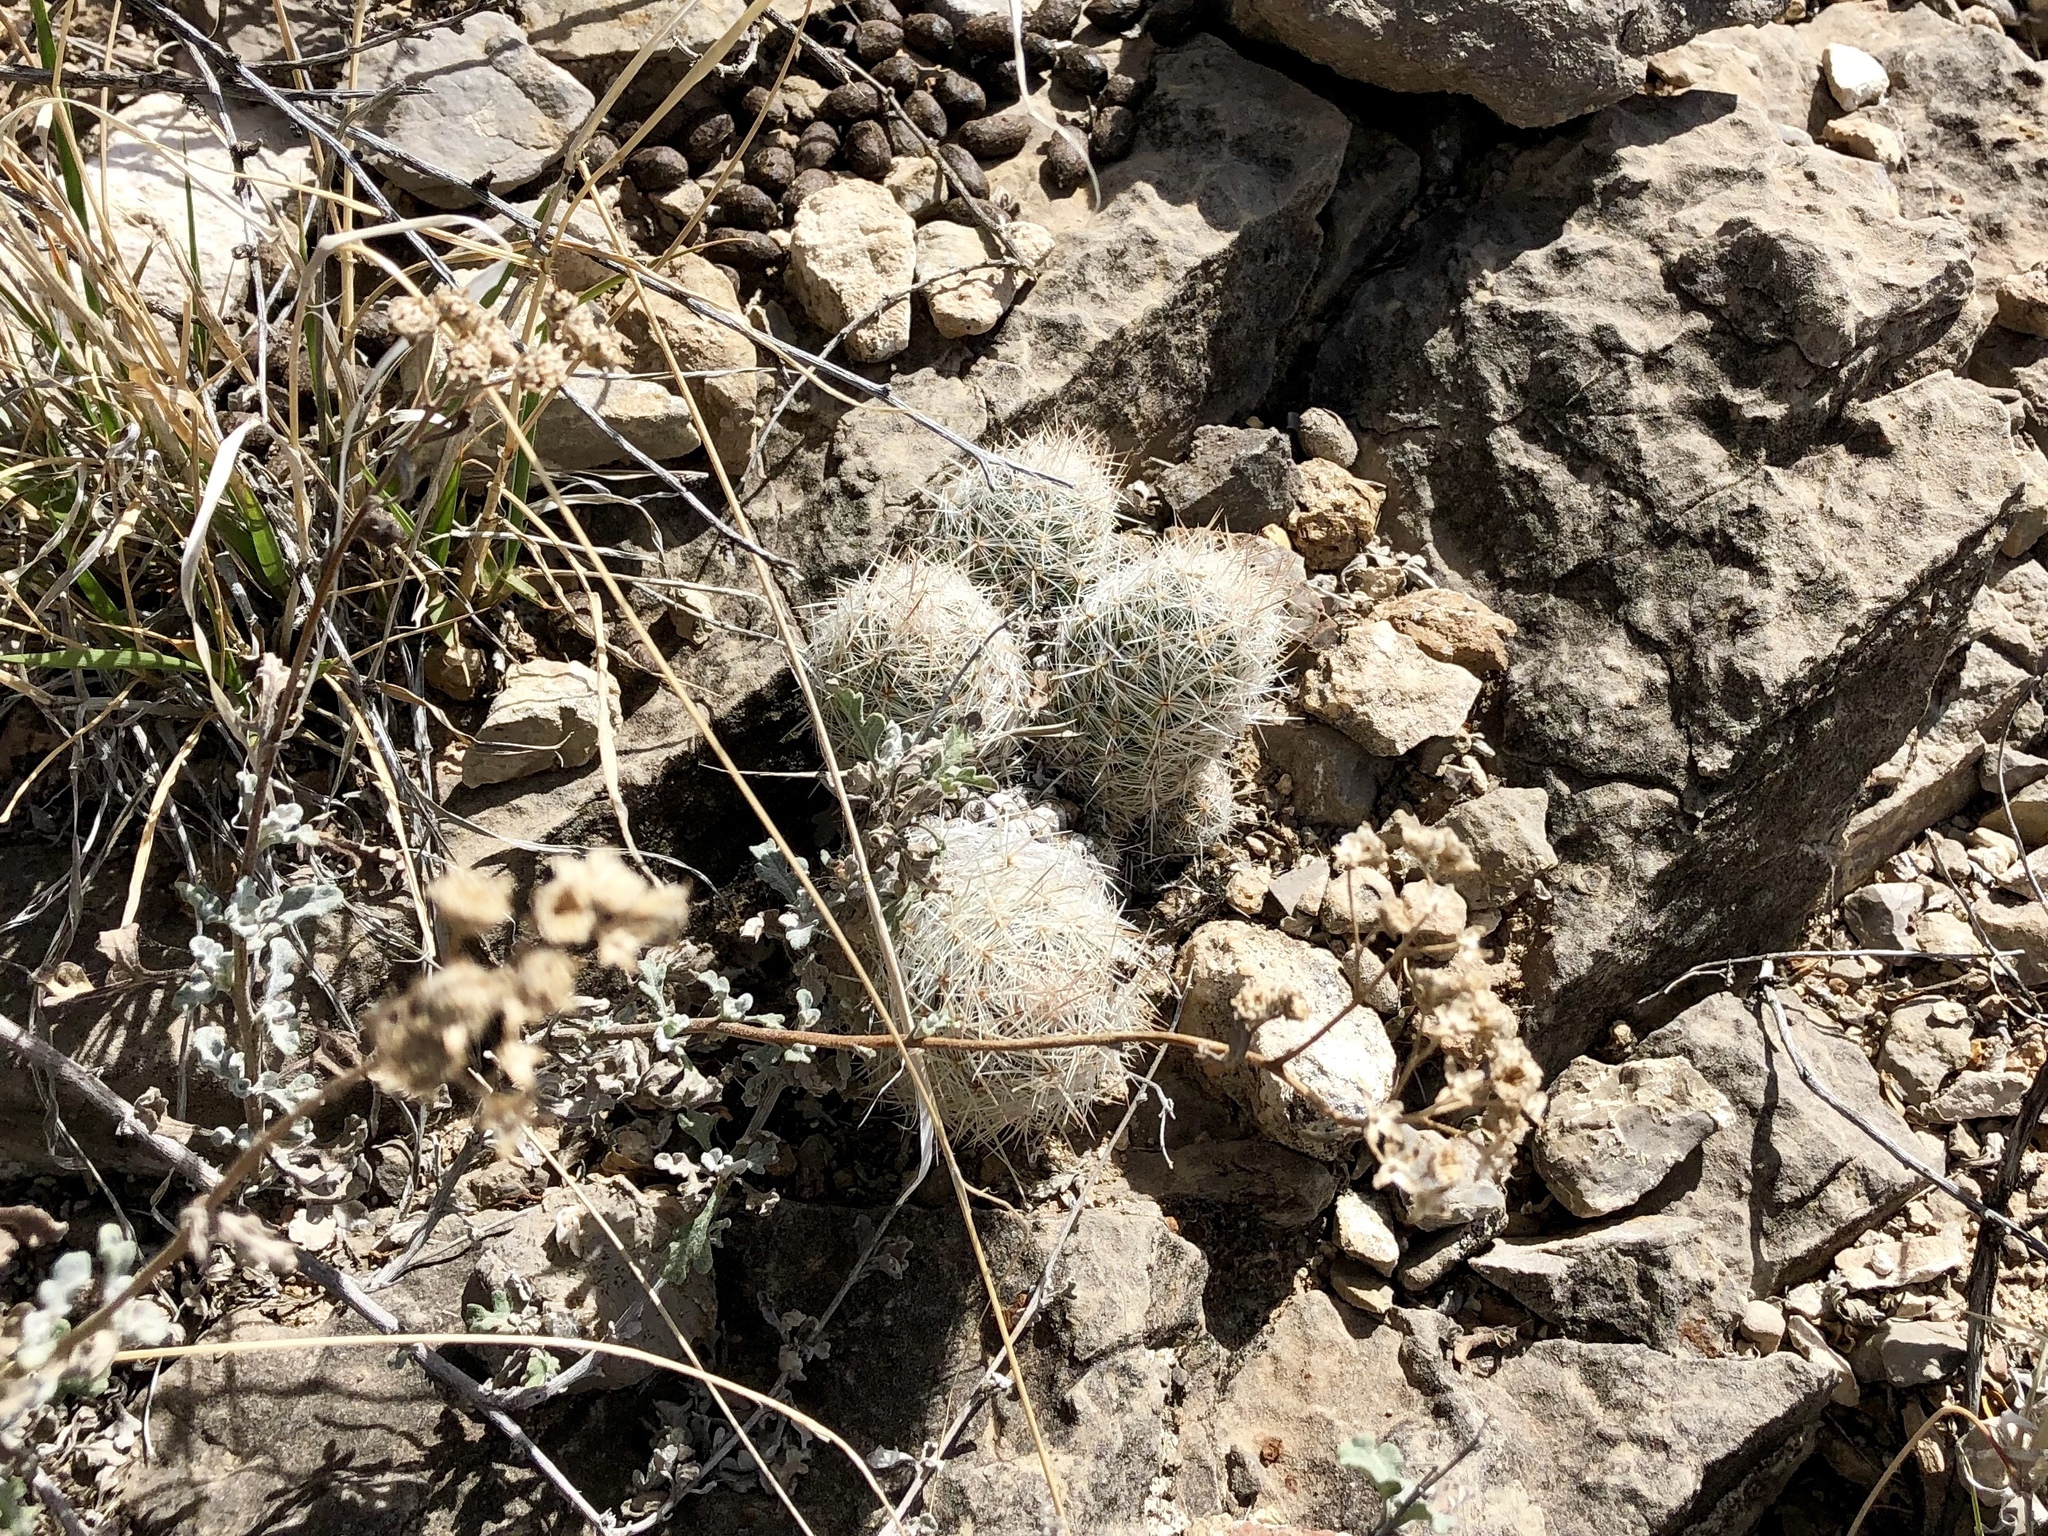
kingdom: Plantae
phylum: Tracheophyta
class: Magnoliopsida
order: Caryophyllales
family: Cactaceae
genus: Pelecyphora
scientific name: Pelecyphora tuberculosa
